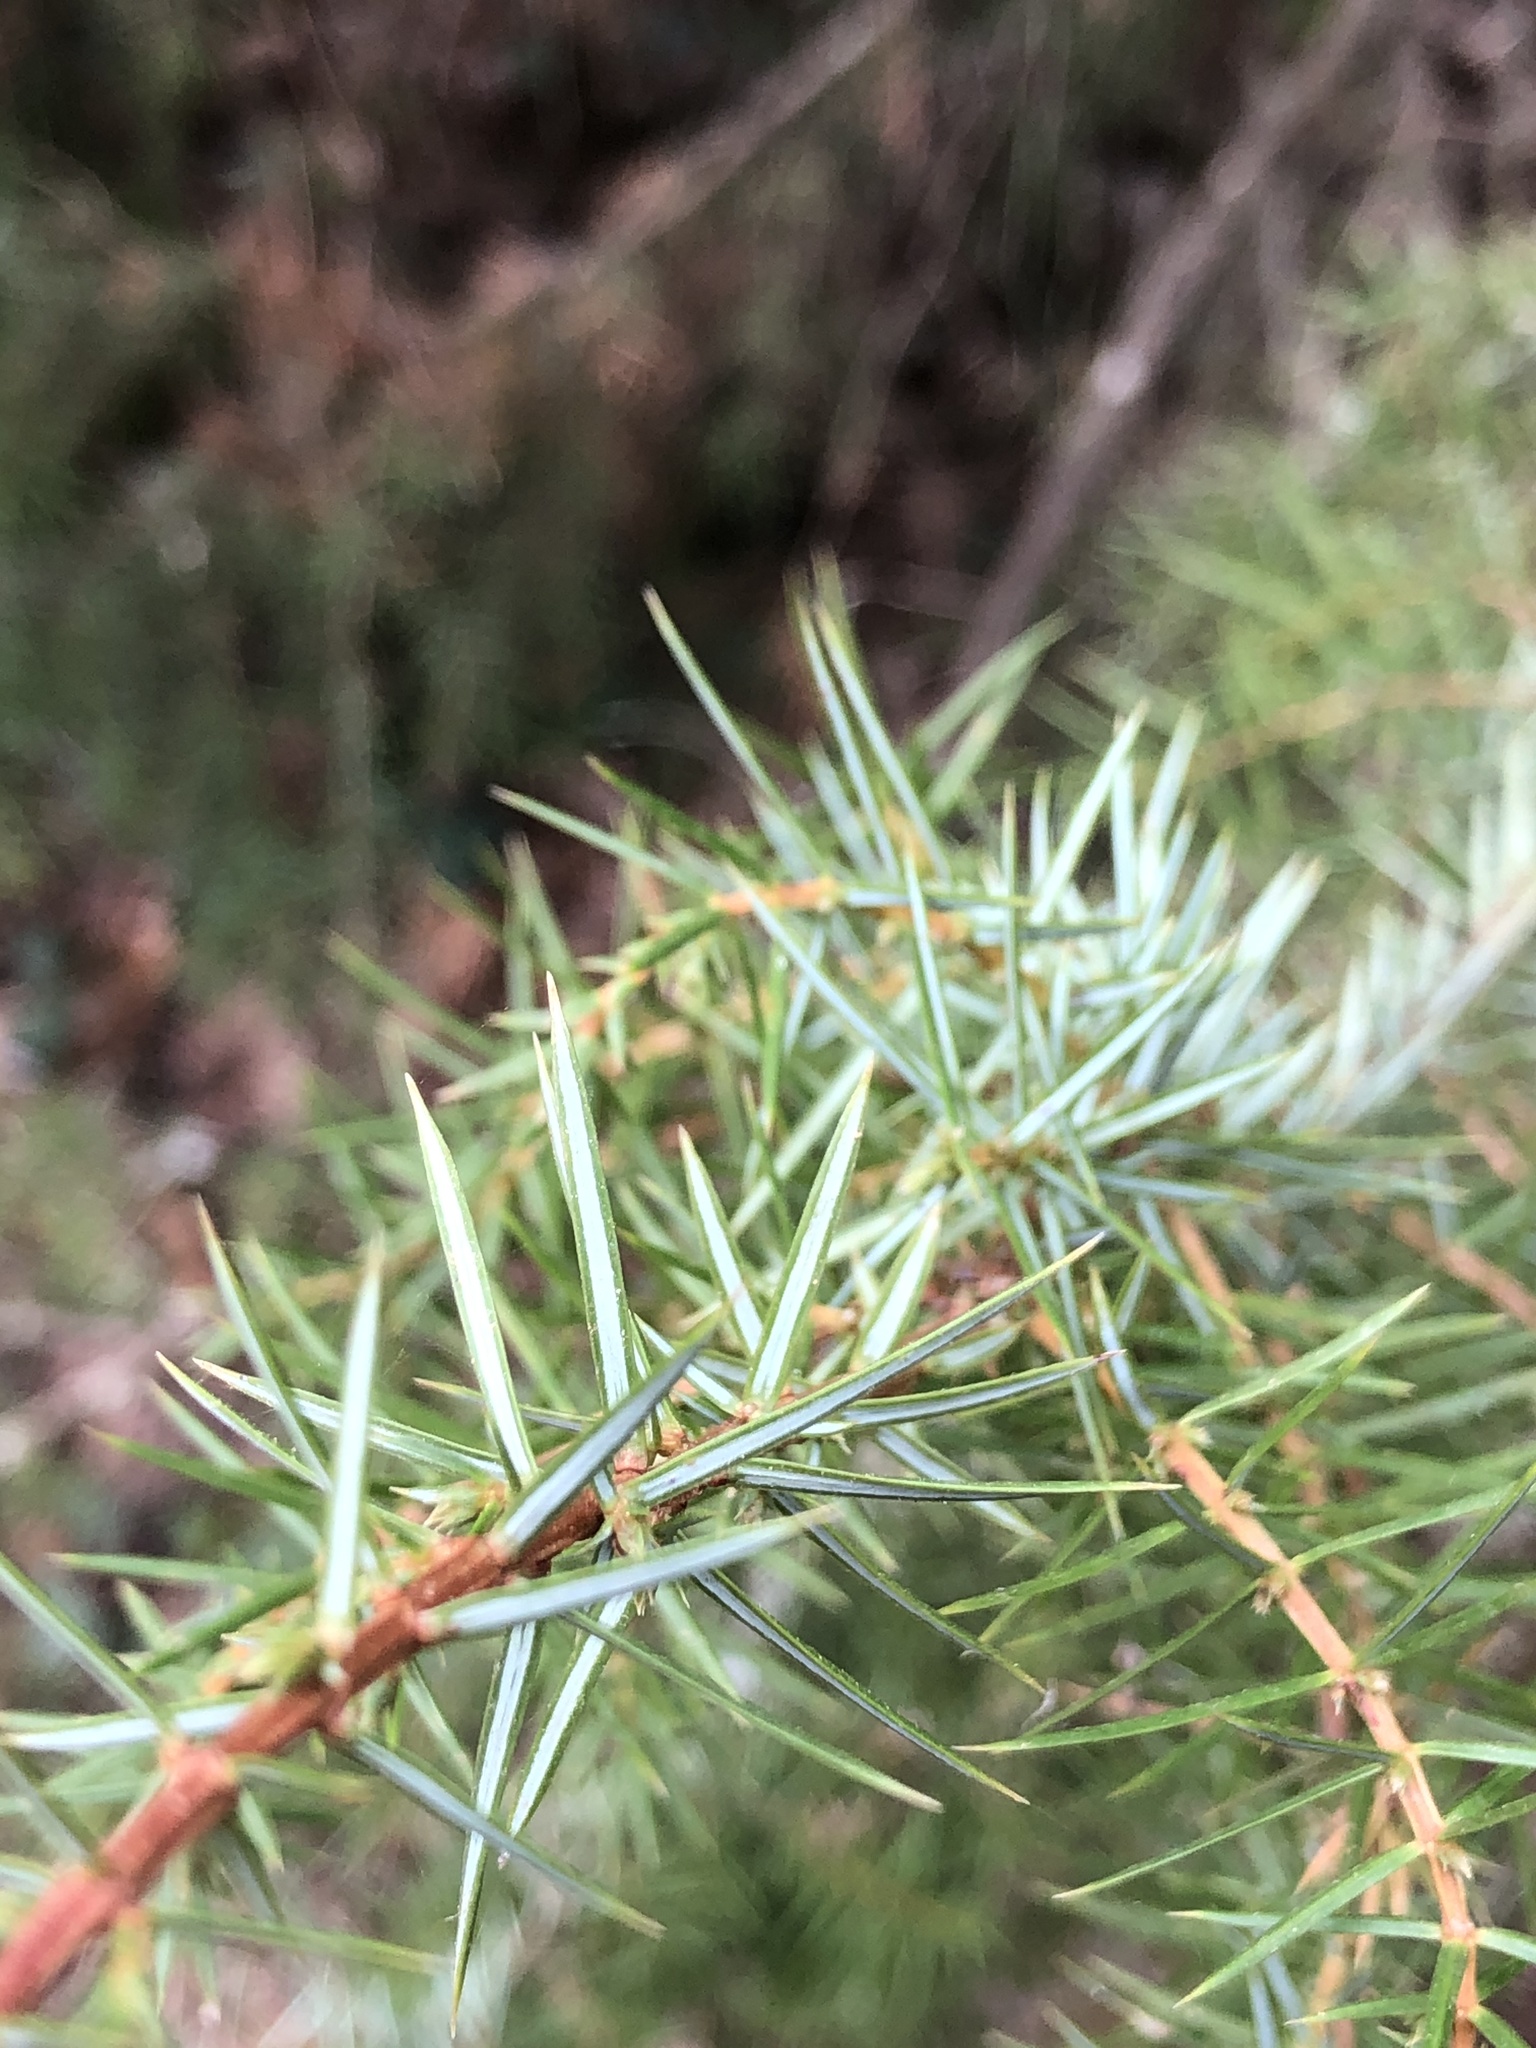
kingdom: Plantae
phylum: Tracheophyta
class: Pinopsida
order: Pinales
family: Cupressaceae
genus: Juniperus
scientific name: Juniperus communis
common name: Common juniper
